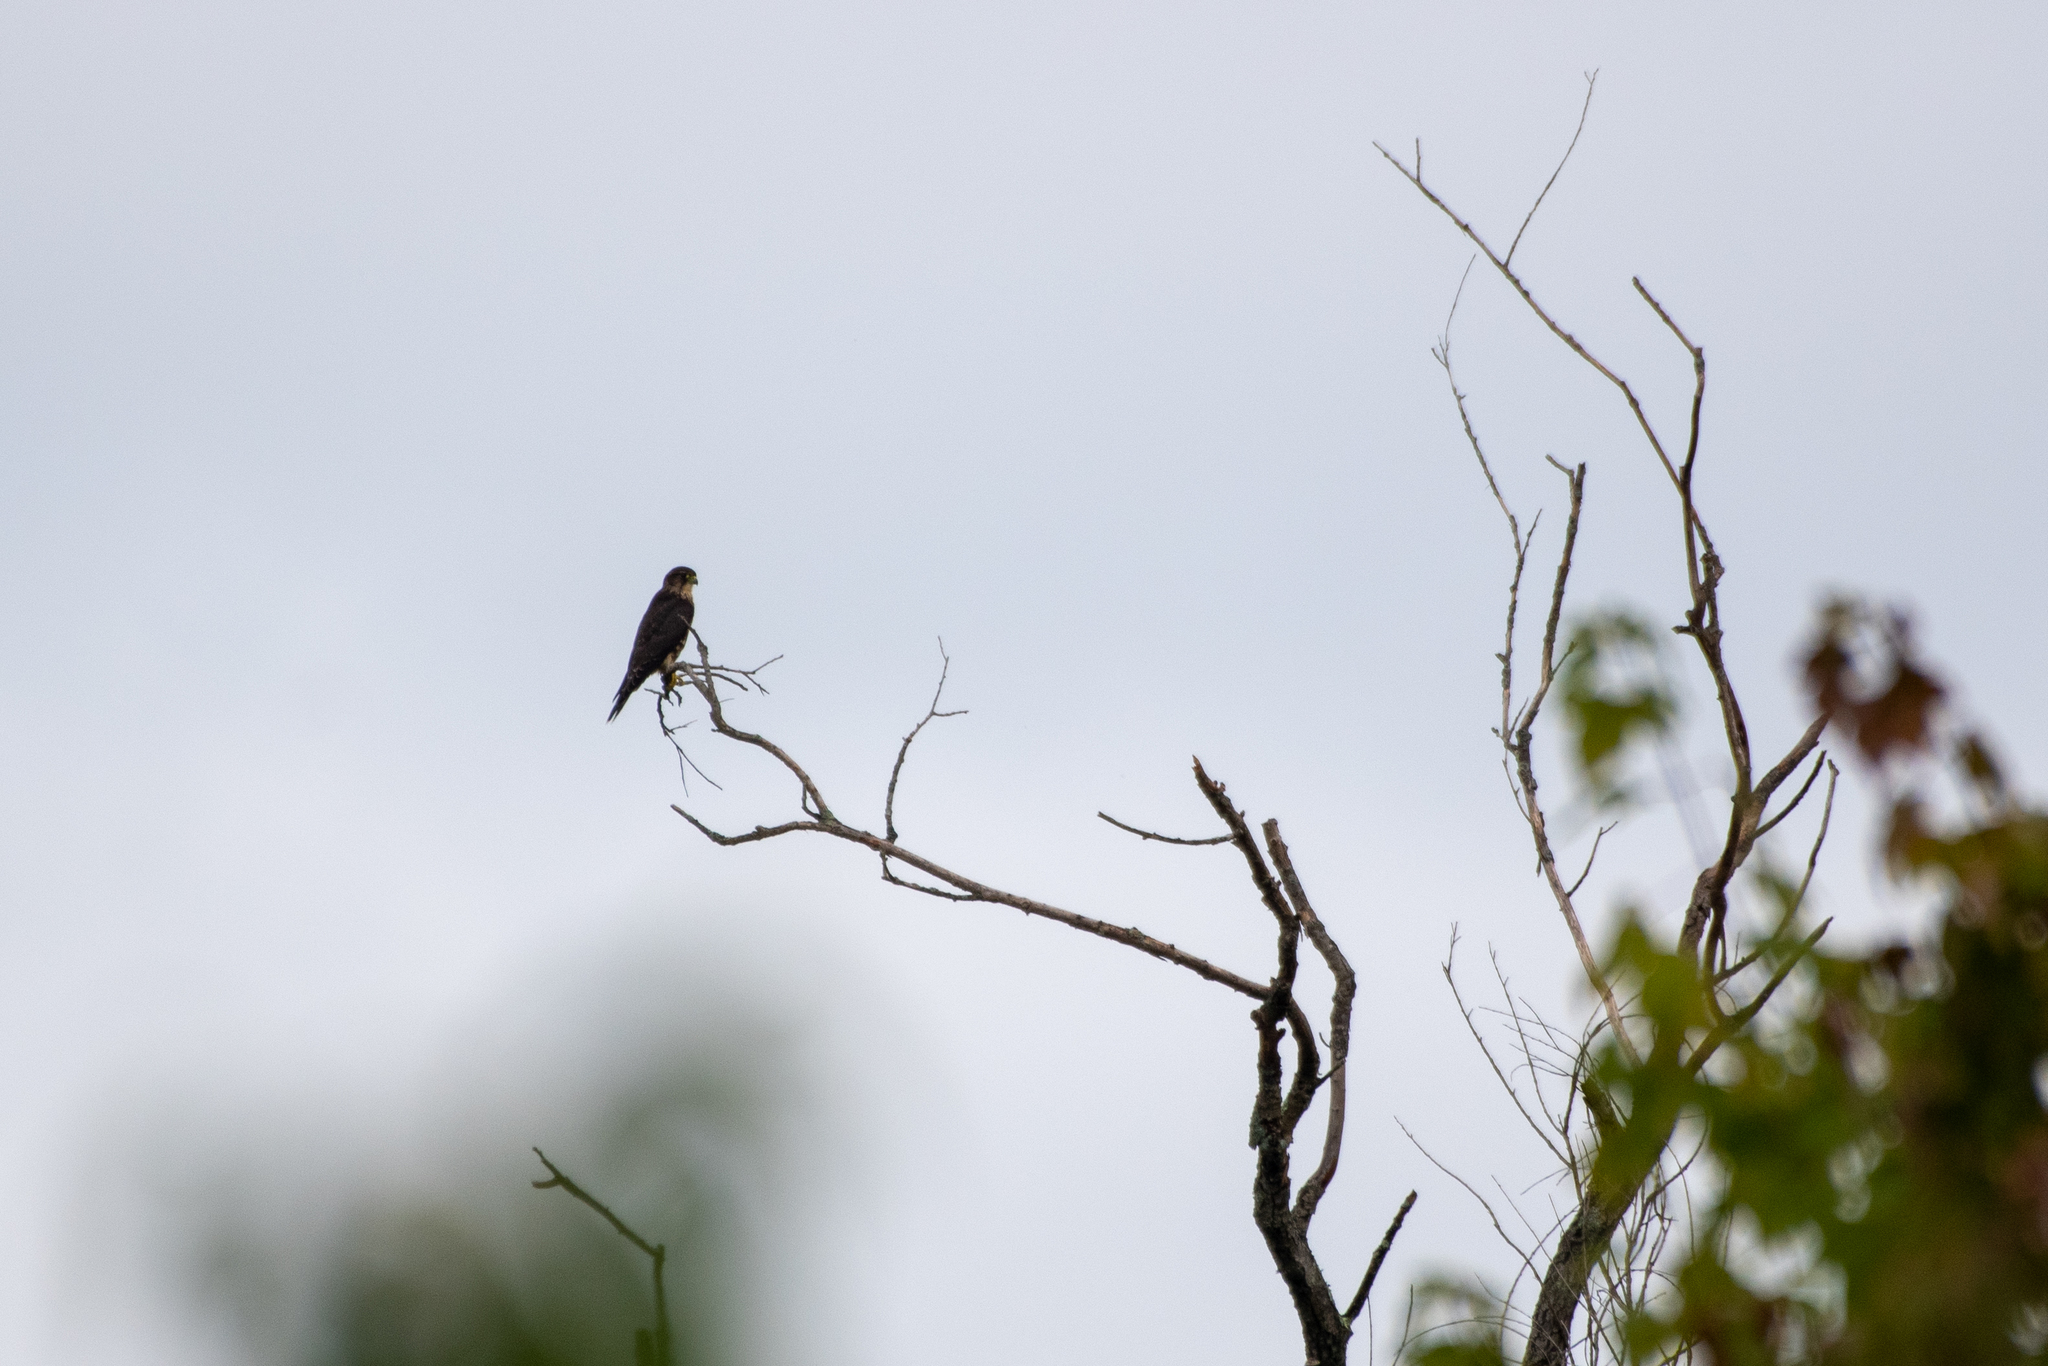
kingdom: Animalia
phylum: Chordata
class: Aves
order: Falconiformes
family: Falconidae
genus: Falco
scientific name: Falco columbarius
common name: Merlin
